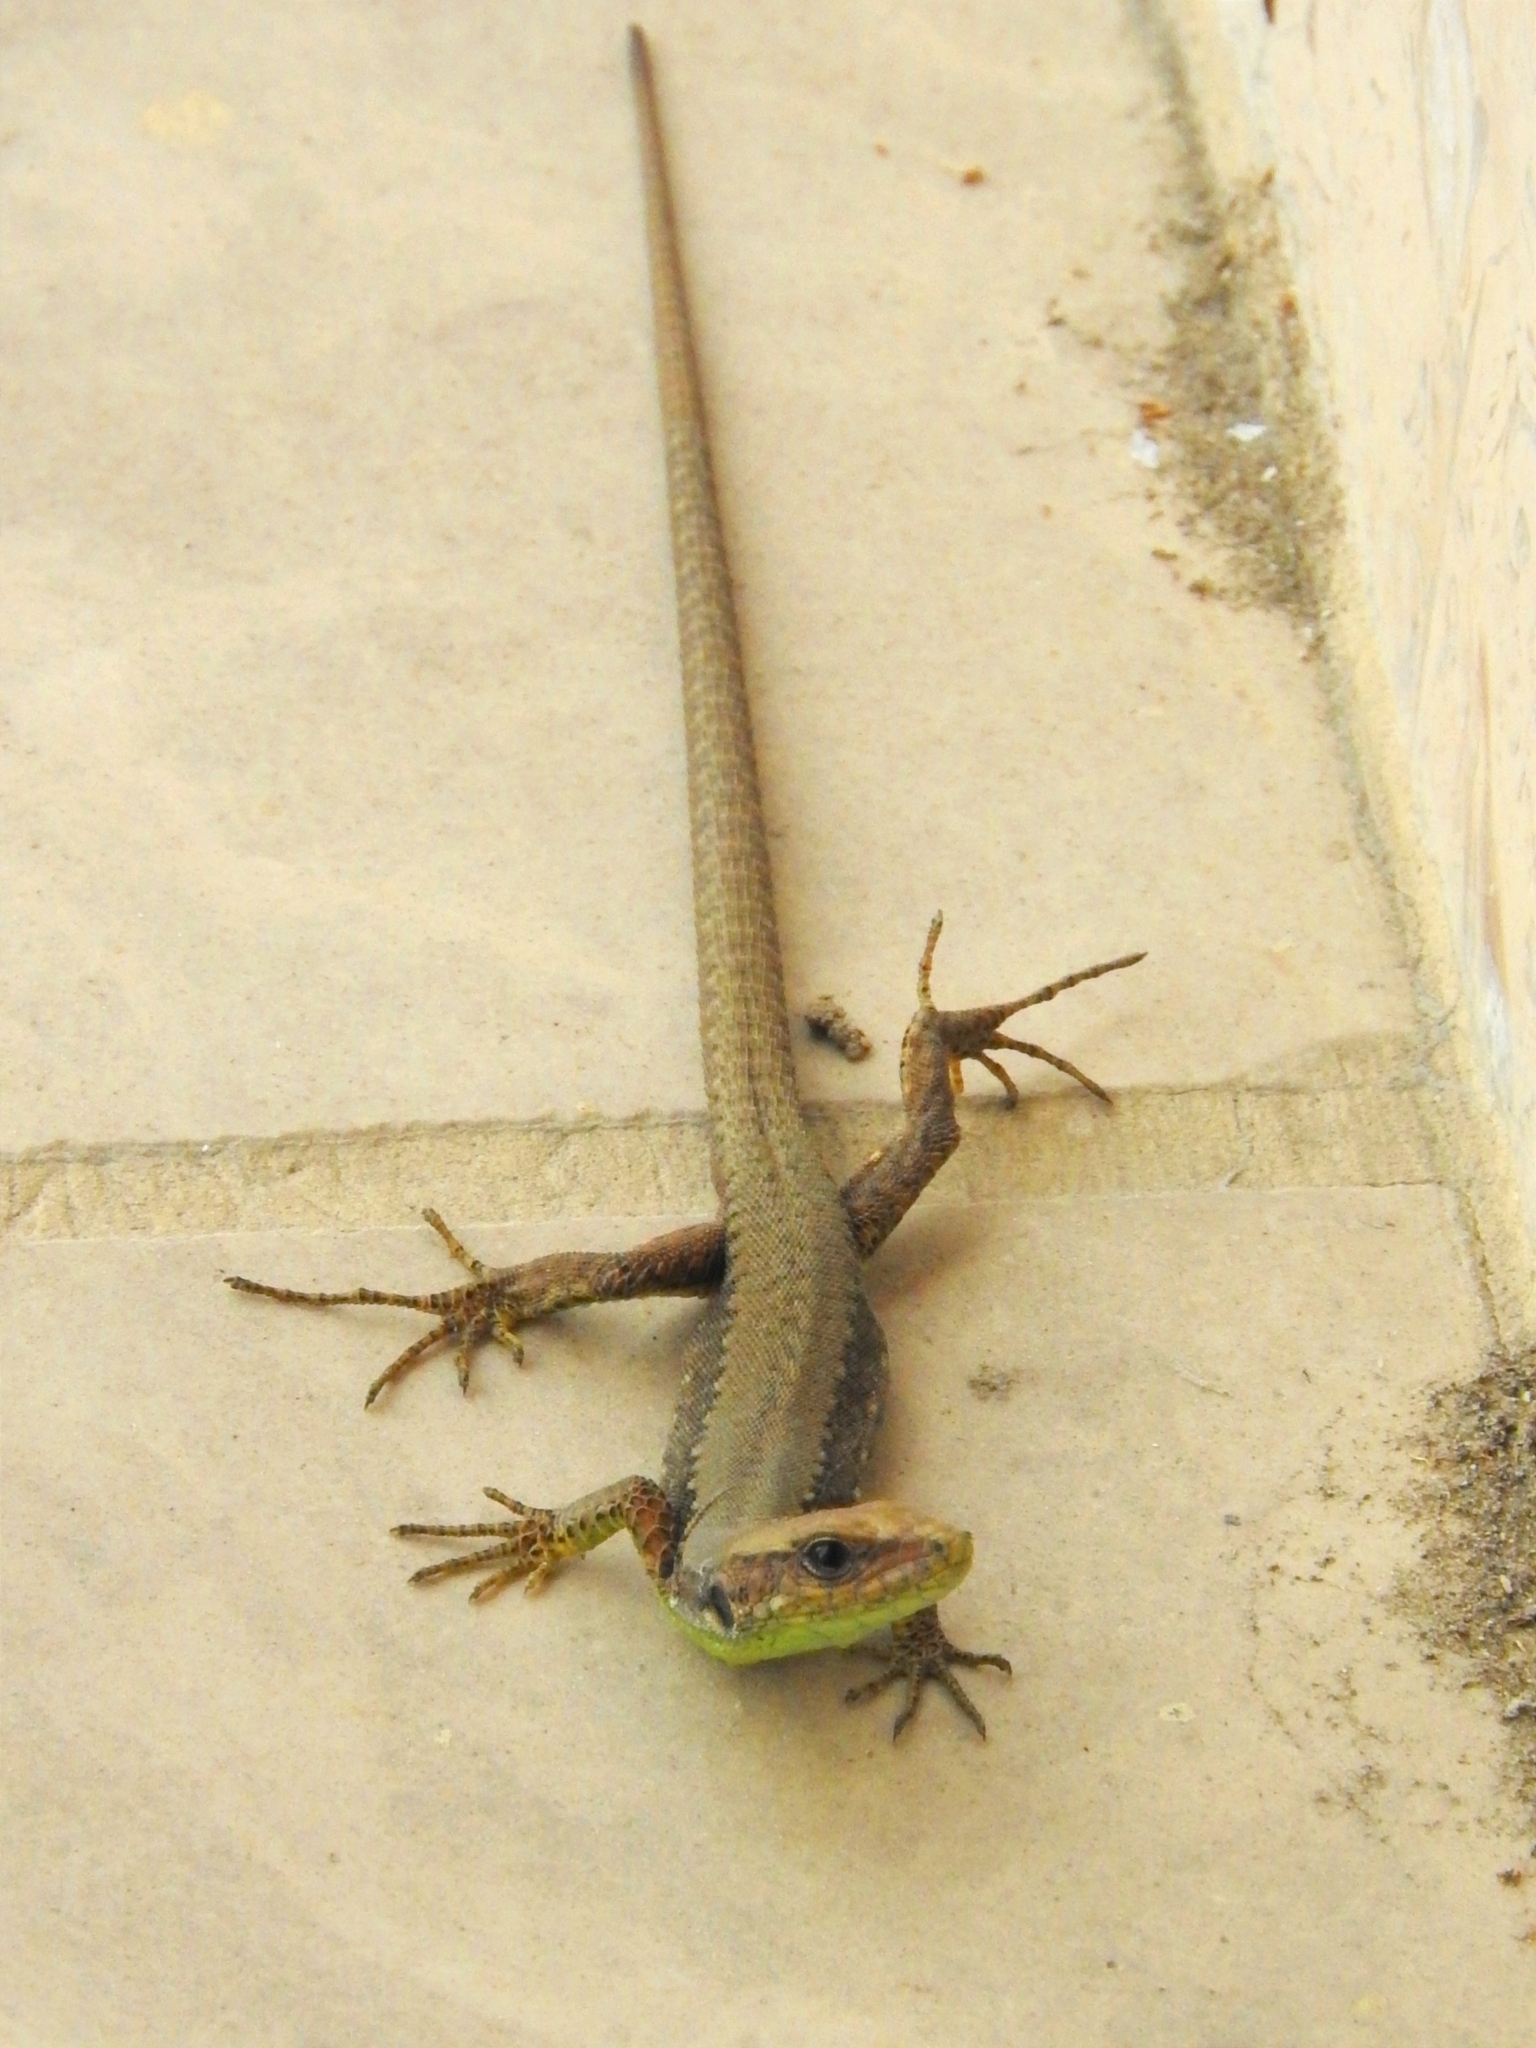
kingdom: Animalia
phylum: Chordata
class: Squamata
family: Lacertidae
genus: Darevskia
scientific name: Darevskia chlorogaster
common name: Green-bellied lizard
